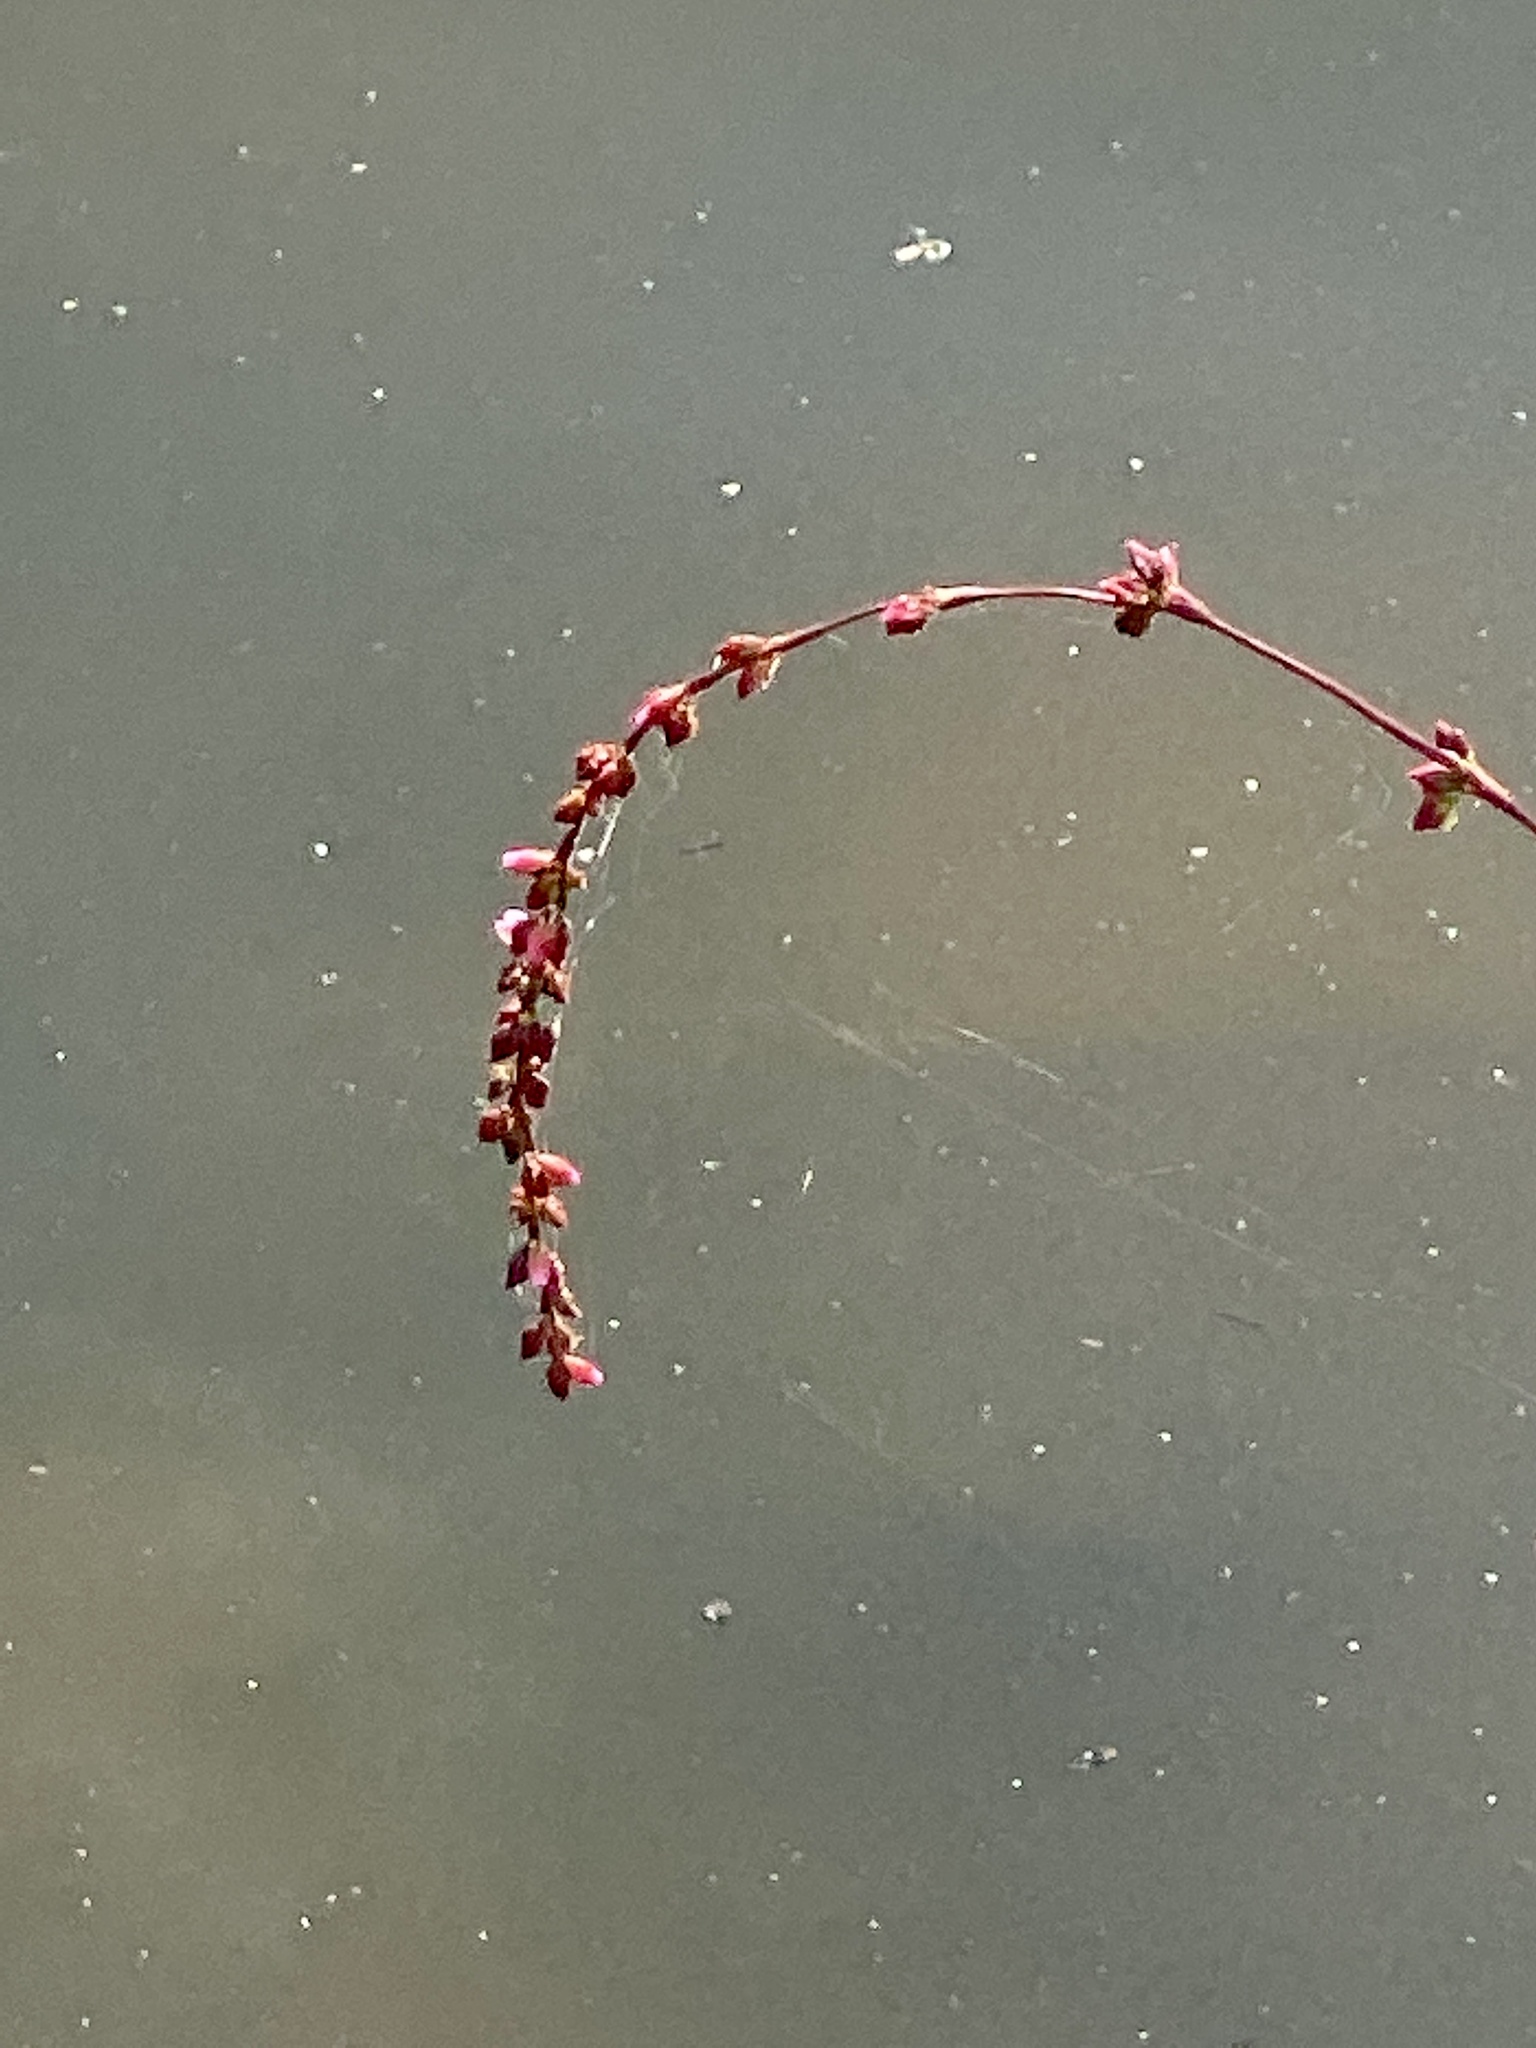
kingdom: Plantae
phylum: Tracheophyta
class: Magnoliopsida
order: Caryophyllales
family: Polygonaceae
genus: Persicaria
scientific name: Persicaria hydropiper
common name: Water-pepper
